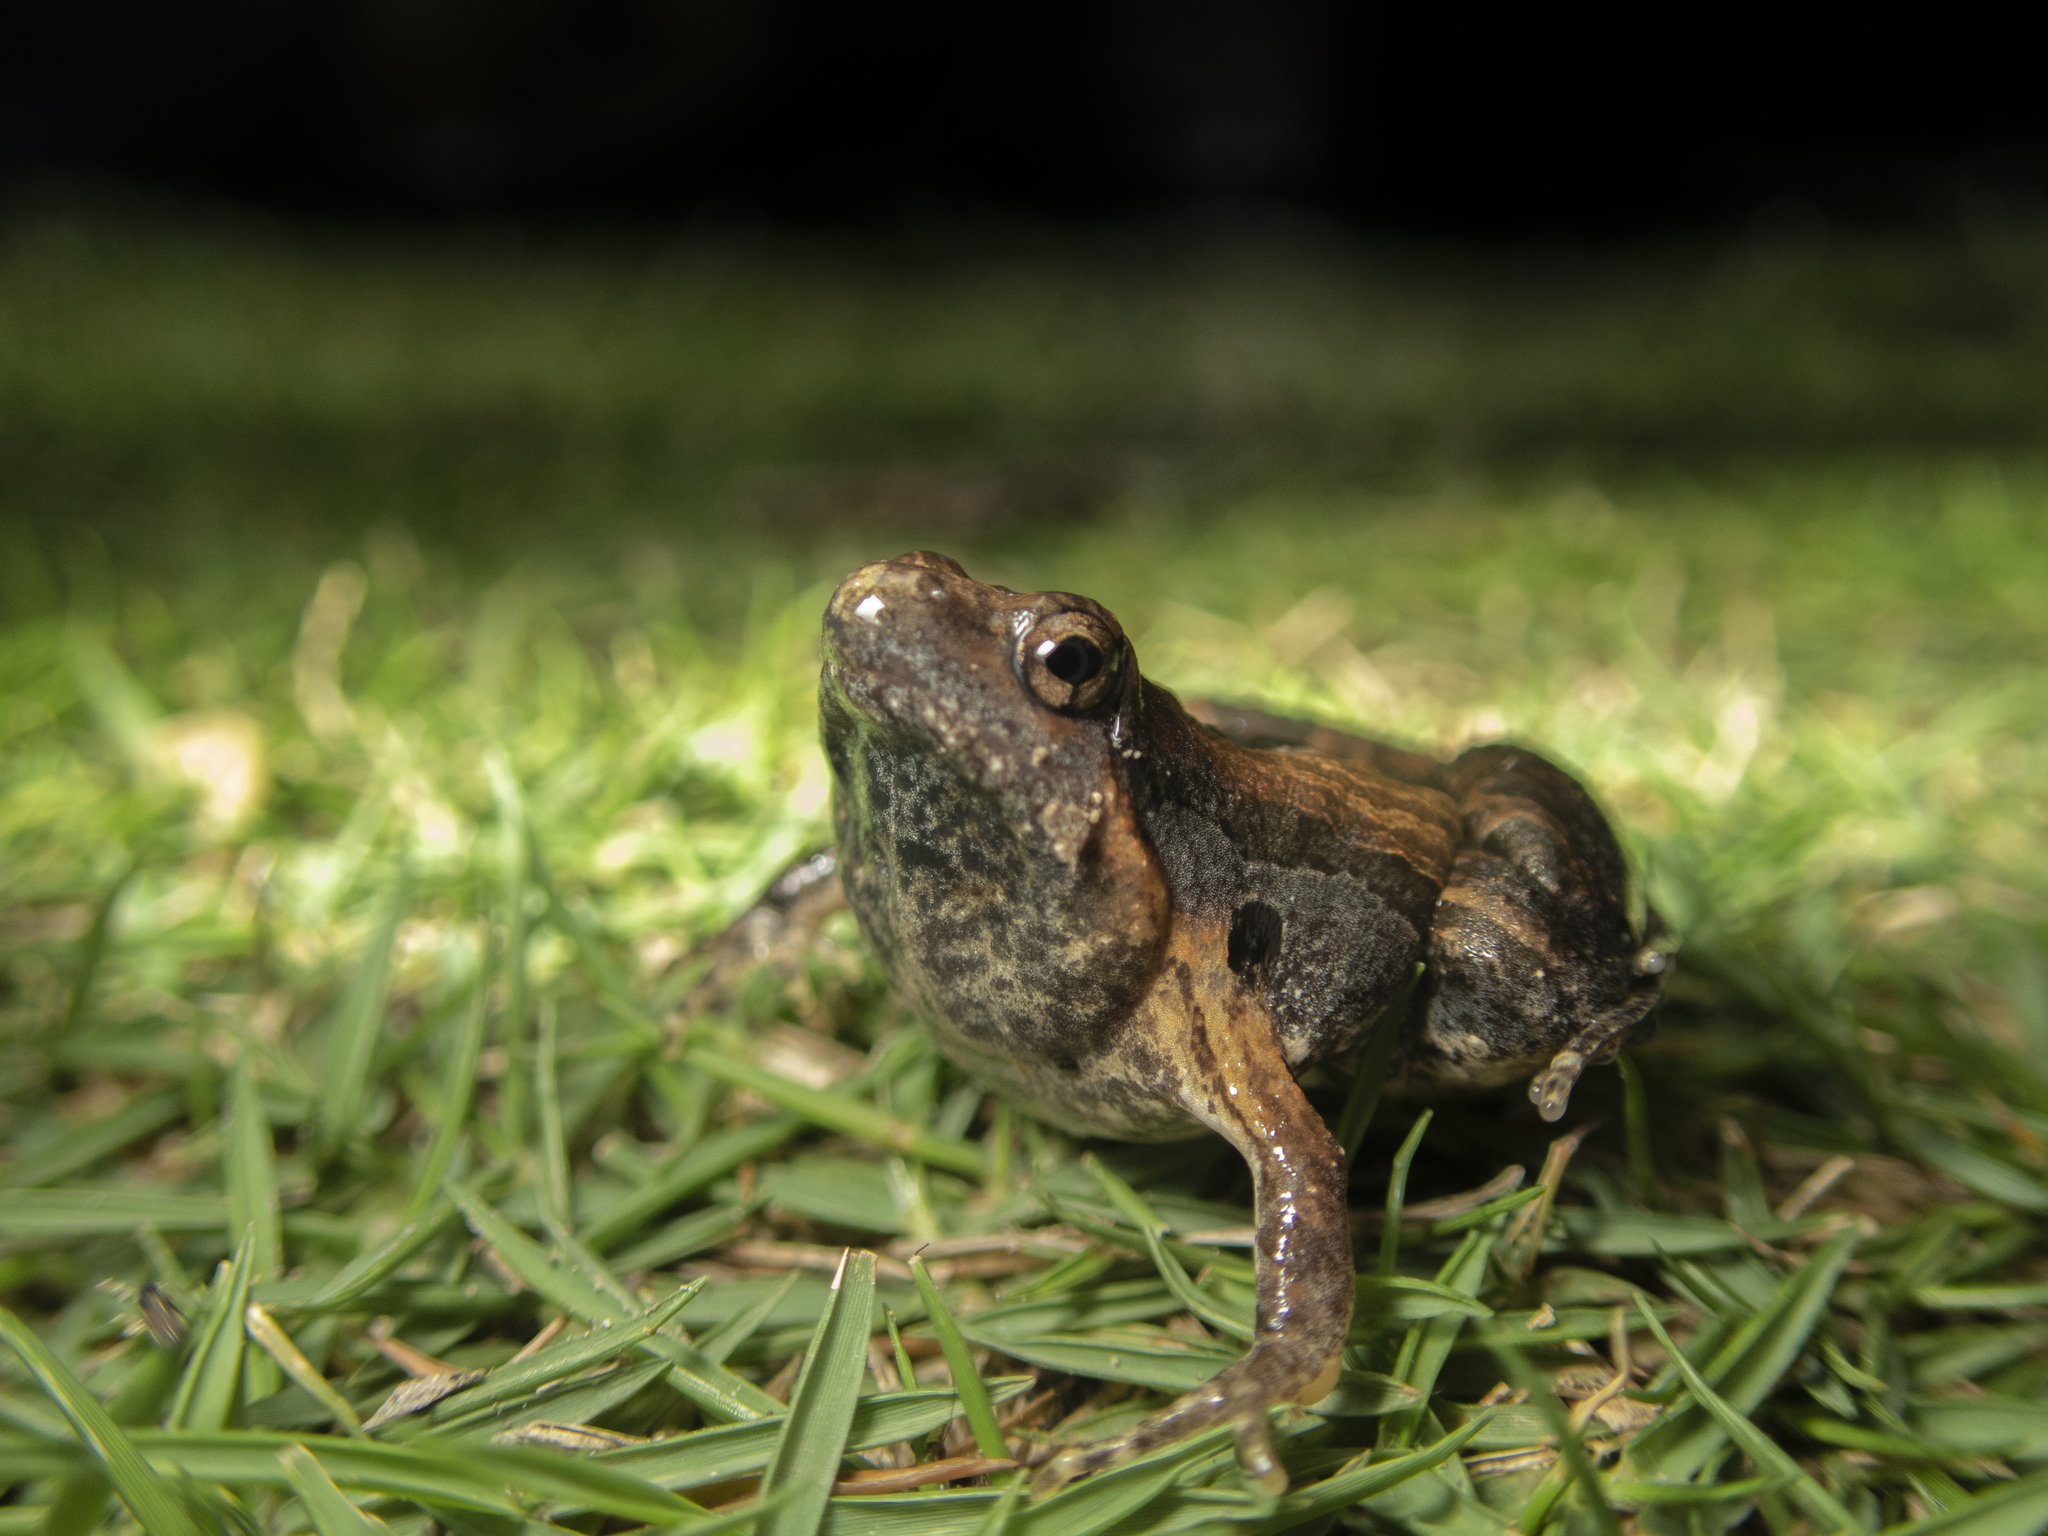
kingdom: Animalia
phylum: Chordata
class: Amphibia
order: Anura
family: Microhylidae
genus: Microhyla
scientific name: Microhyla pulchra
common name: Beautiful pygmy frog
